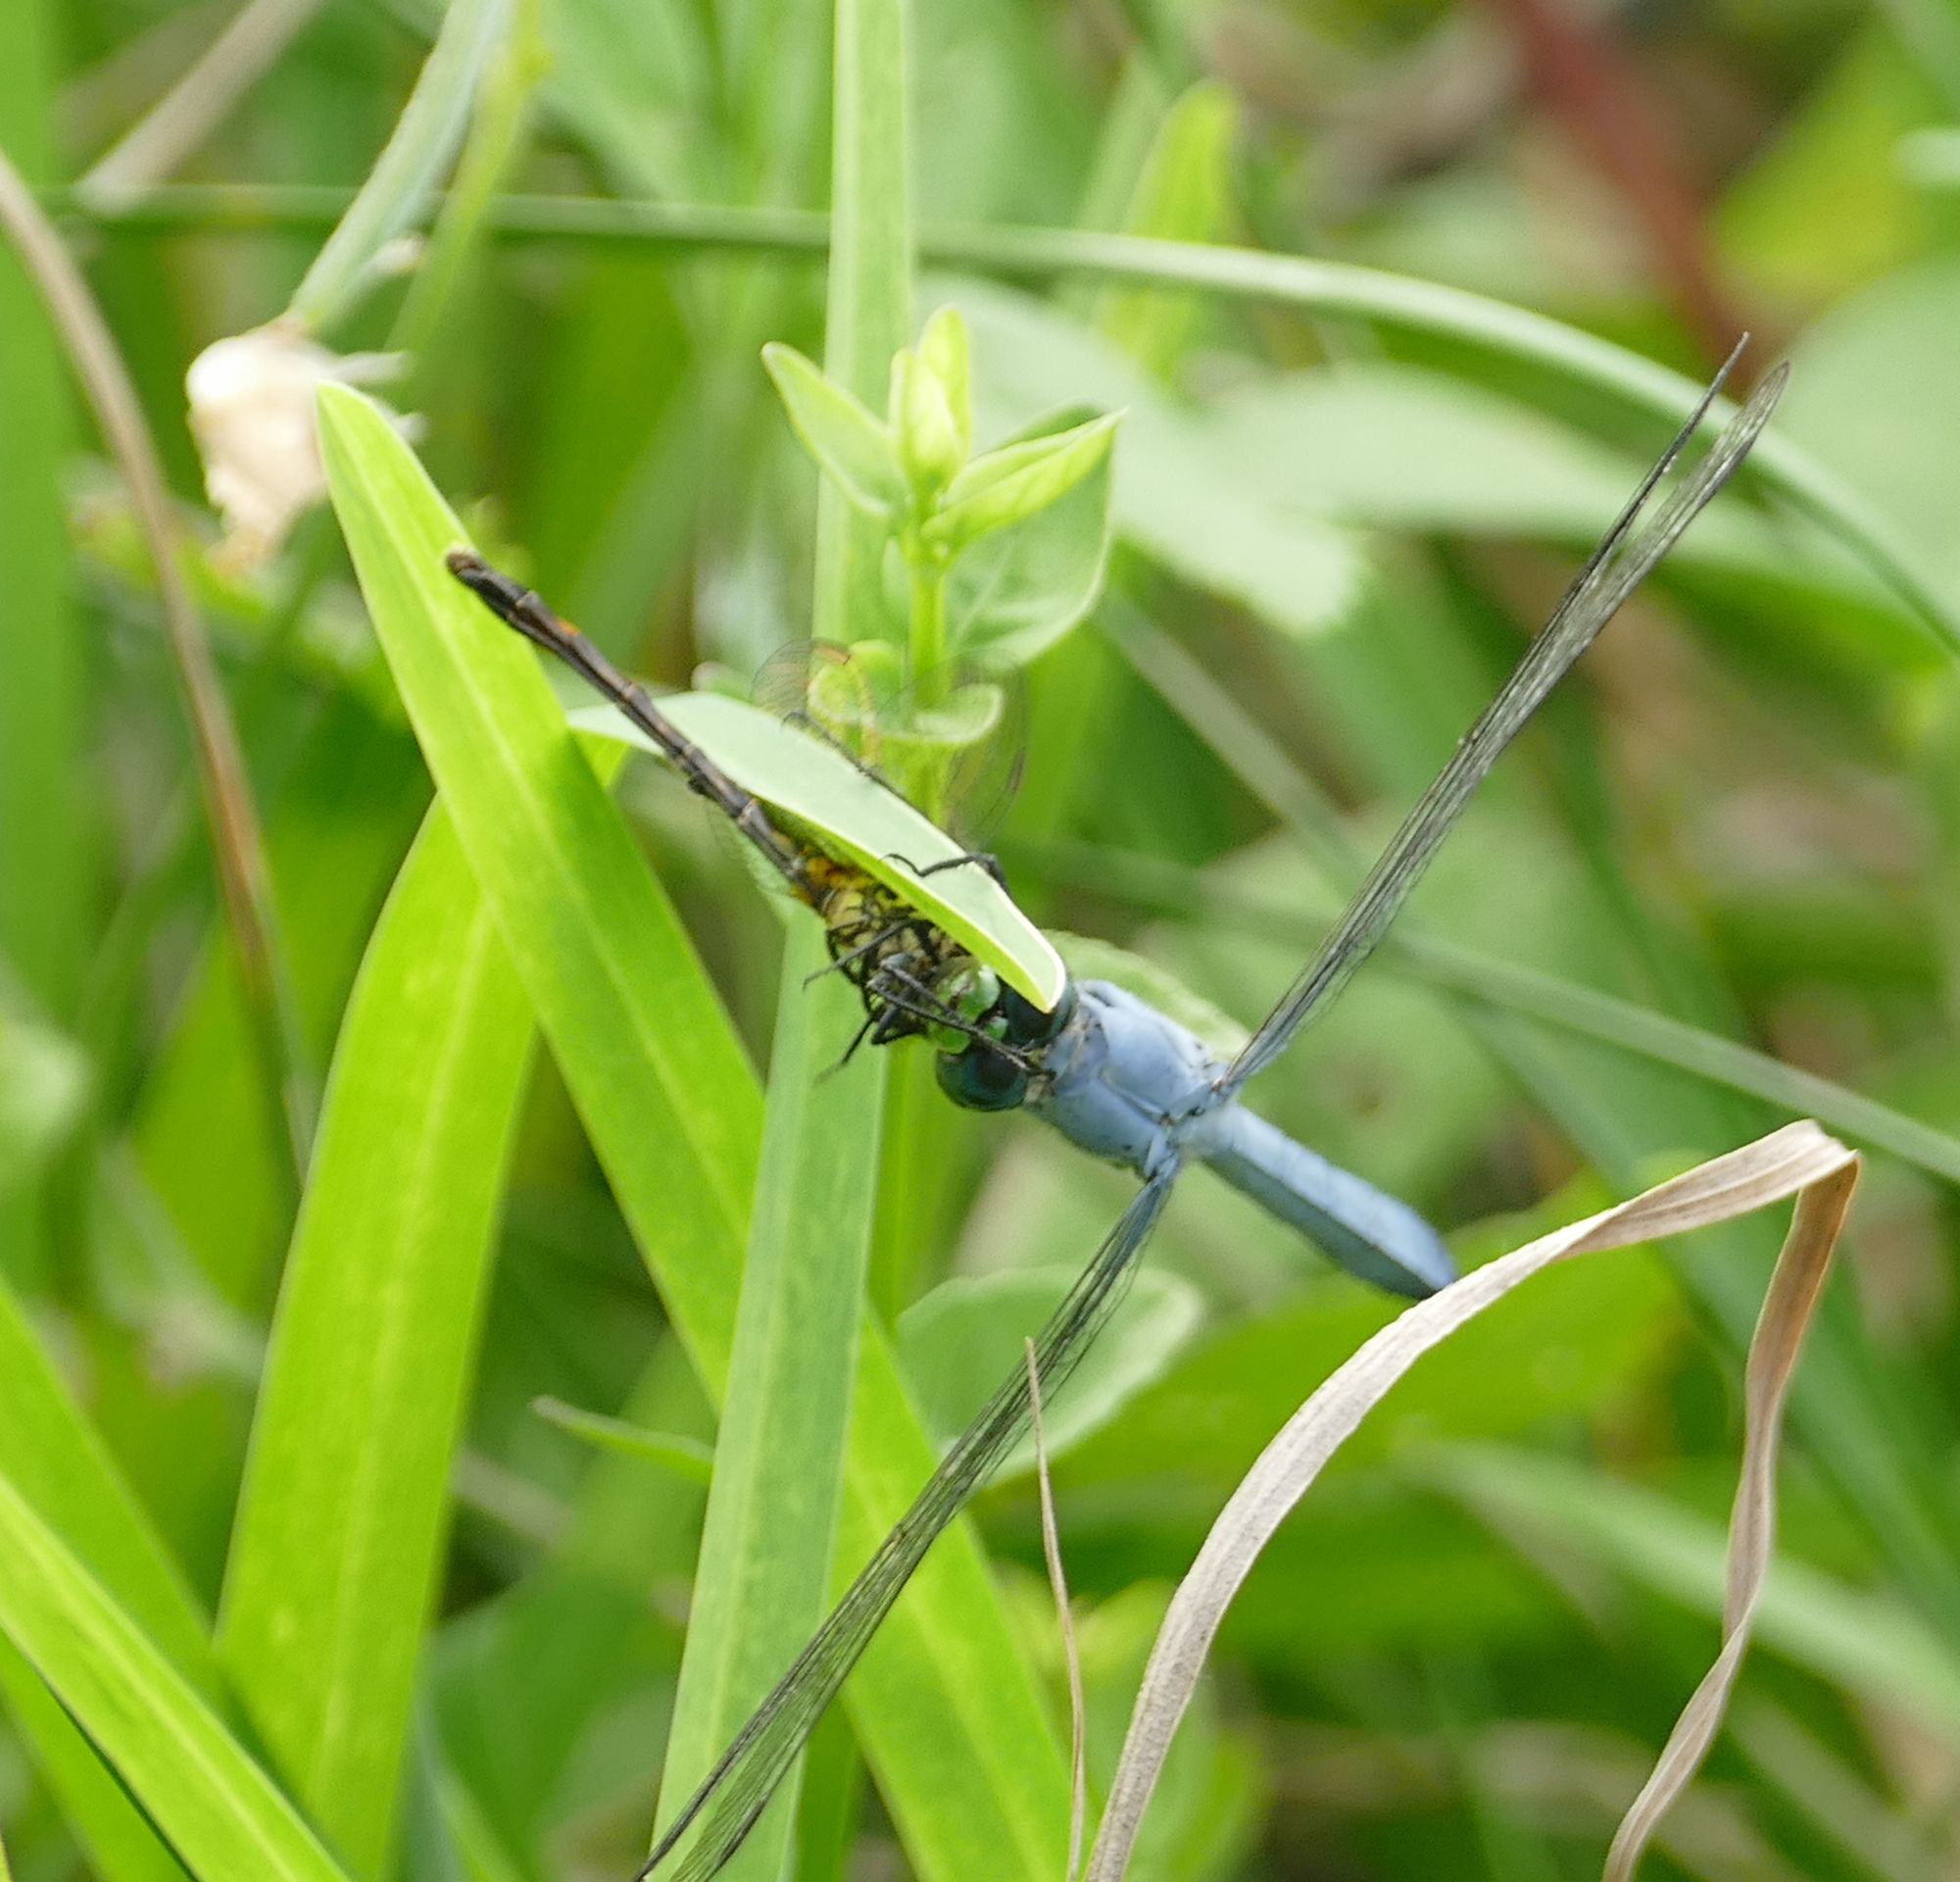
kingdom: Animalia
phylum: Arthropoda
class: Insecta
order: Odonata
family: Libellulidae
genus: Erythemis
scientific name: Erythemis simplicicollis
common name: Eastern pondhawk
